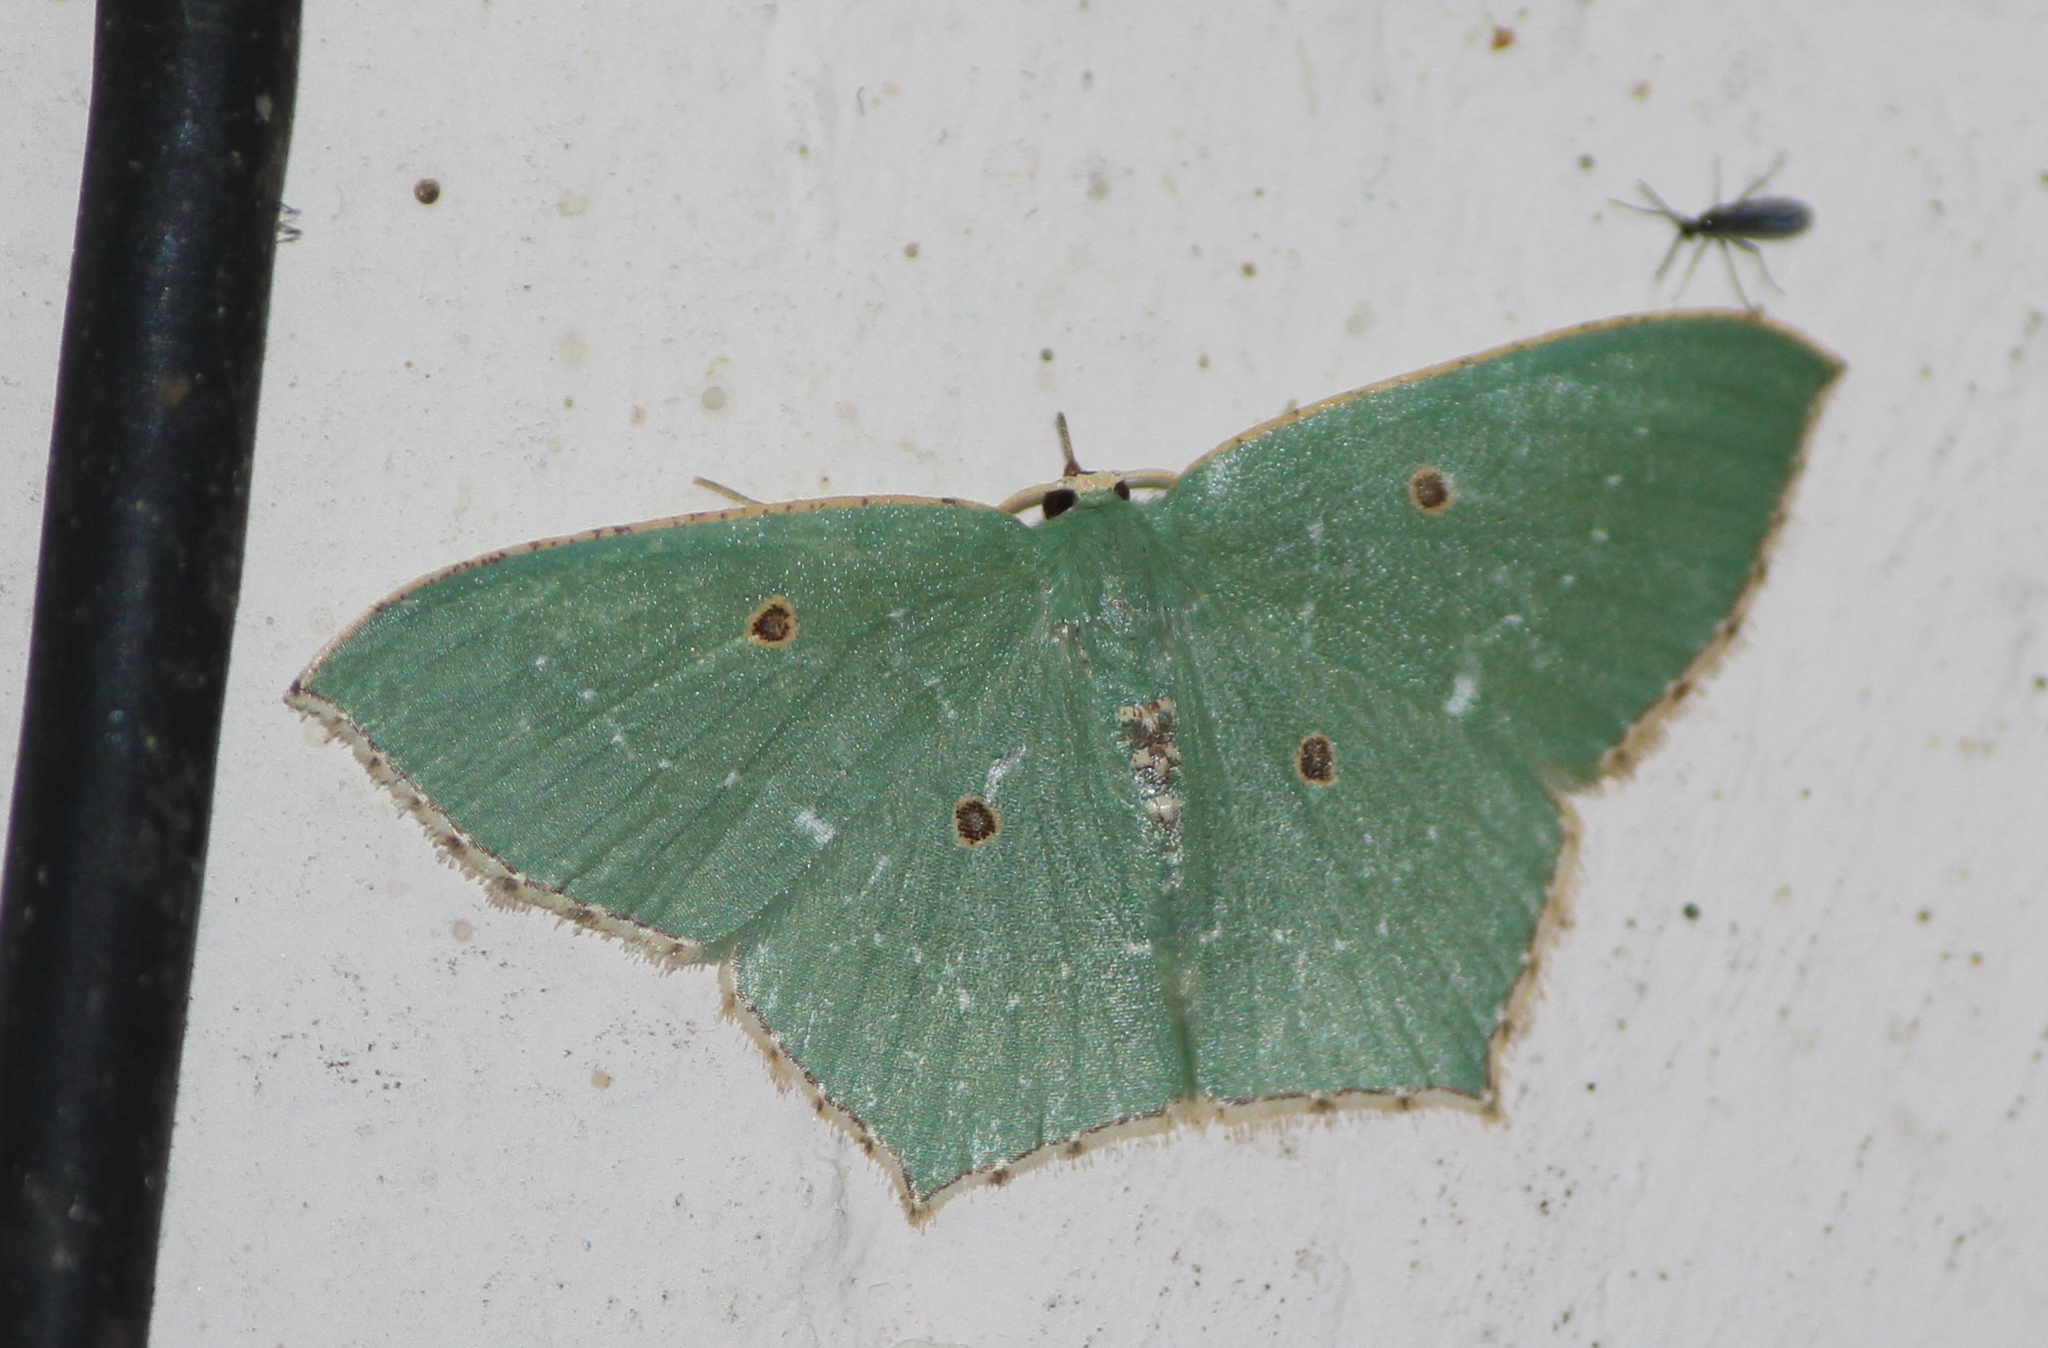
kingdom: Animalia
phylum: Arthropoda
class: Insecta
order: Lepidoptera
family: Geometridae
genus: Cyclothea
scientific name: Cyclothea disjuncta
